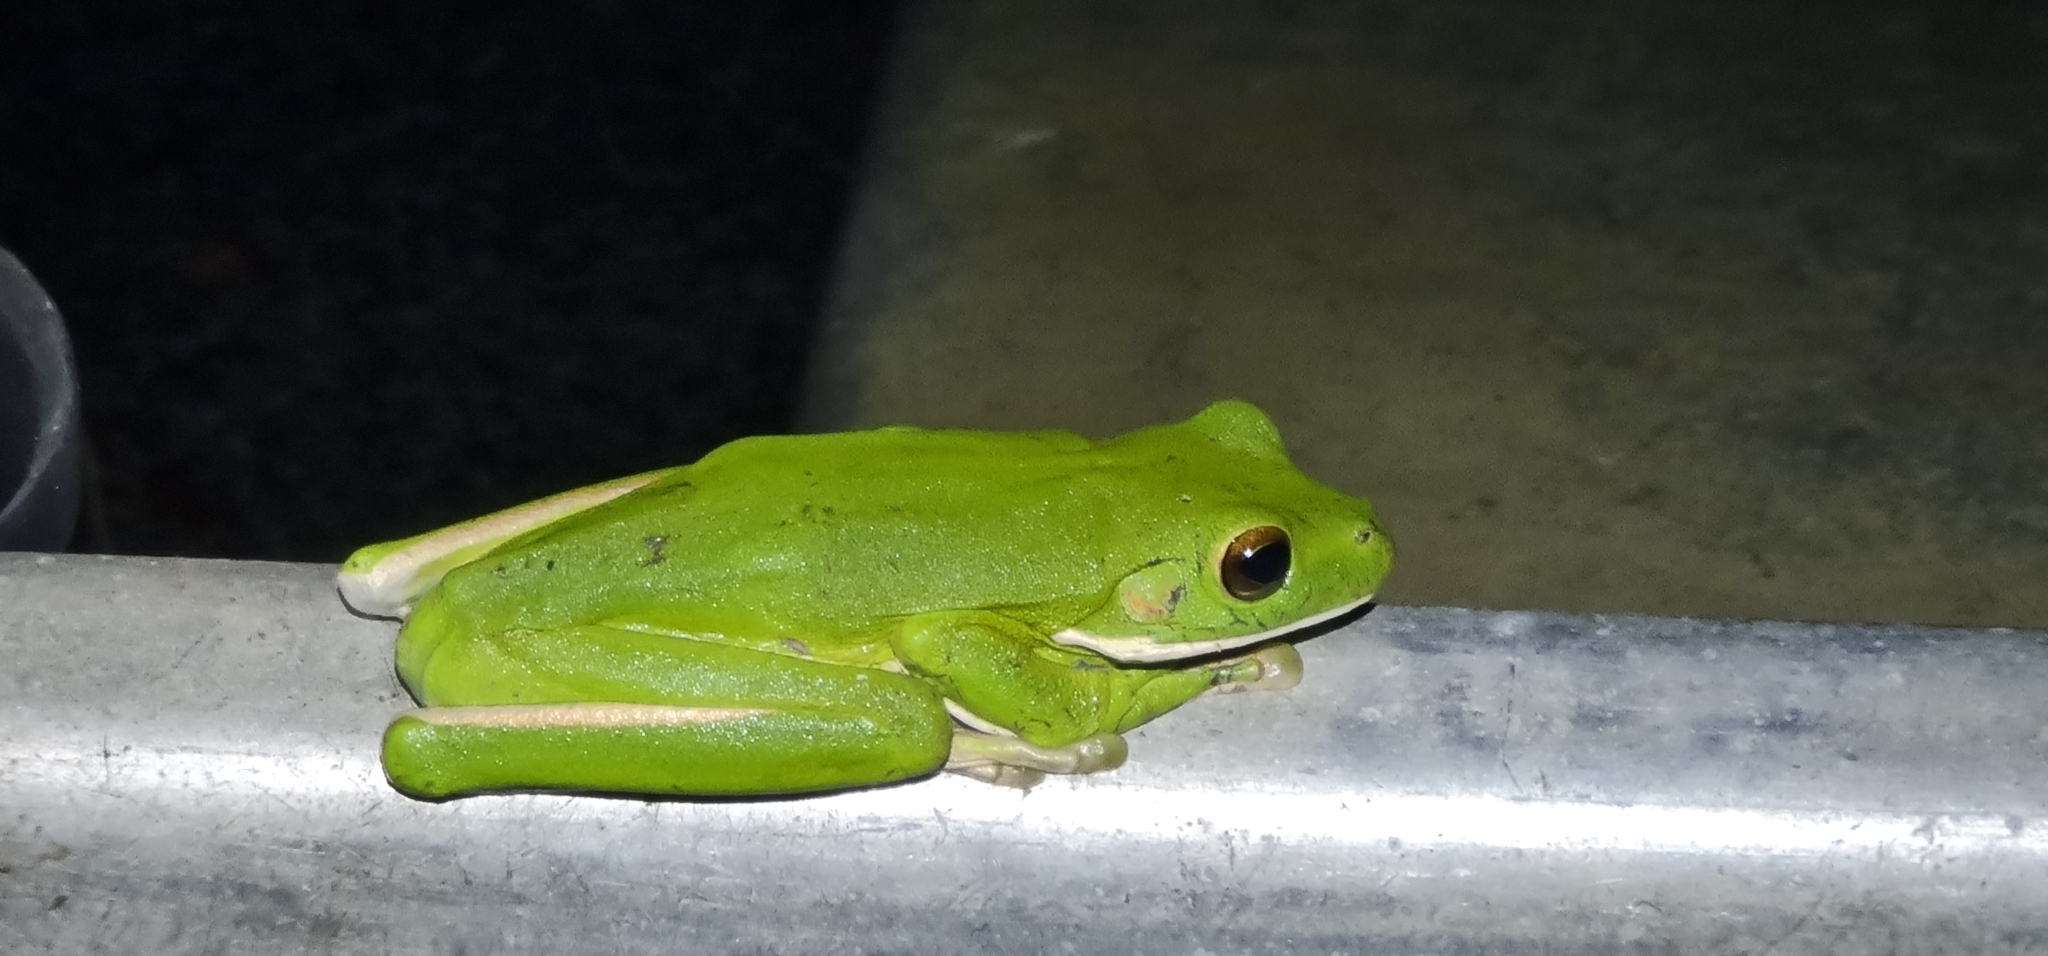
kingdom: Animalia
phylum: Chordata
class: Amphibia
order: Anura
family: Pelodryadidae
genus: Nyctimystes
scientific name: Nyctimystes infrafrenatus
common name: Australian giant treefrog
